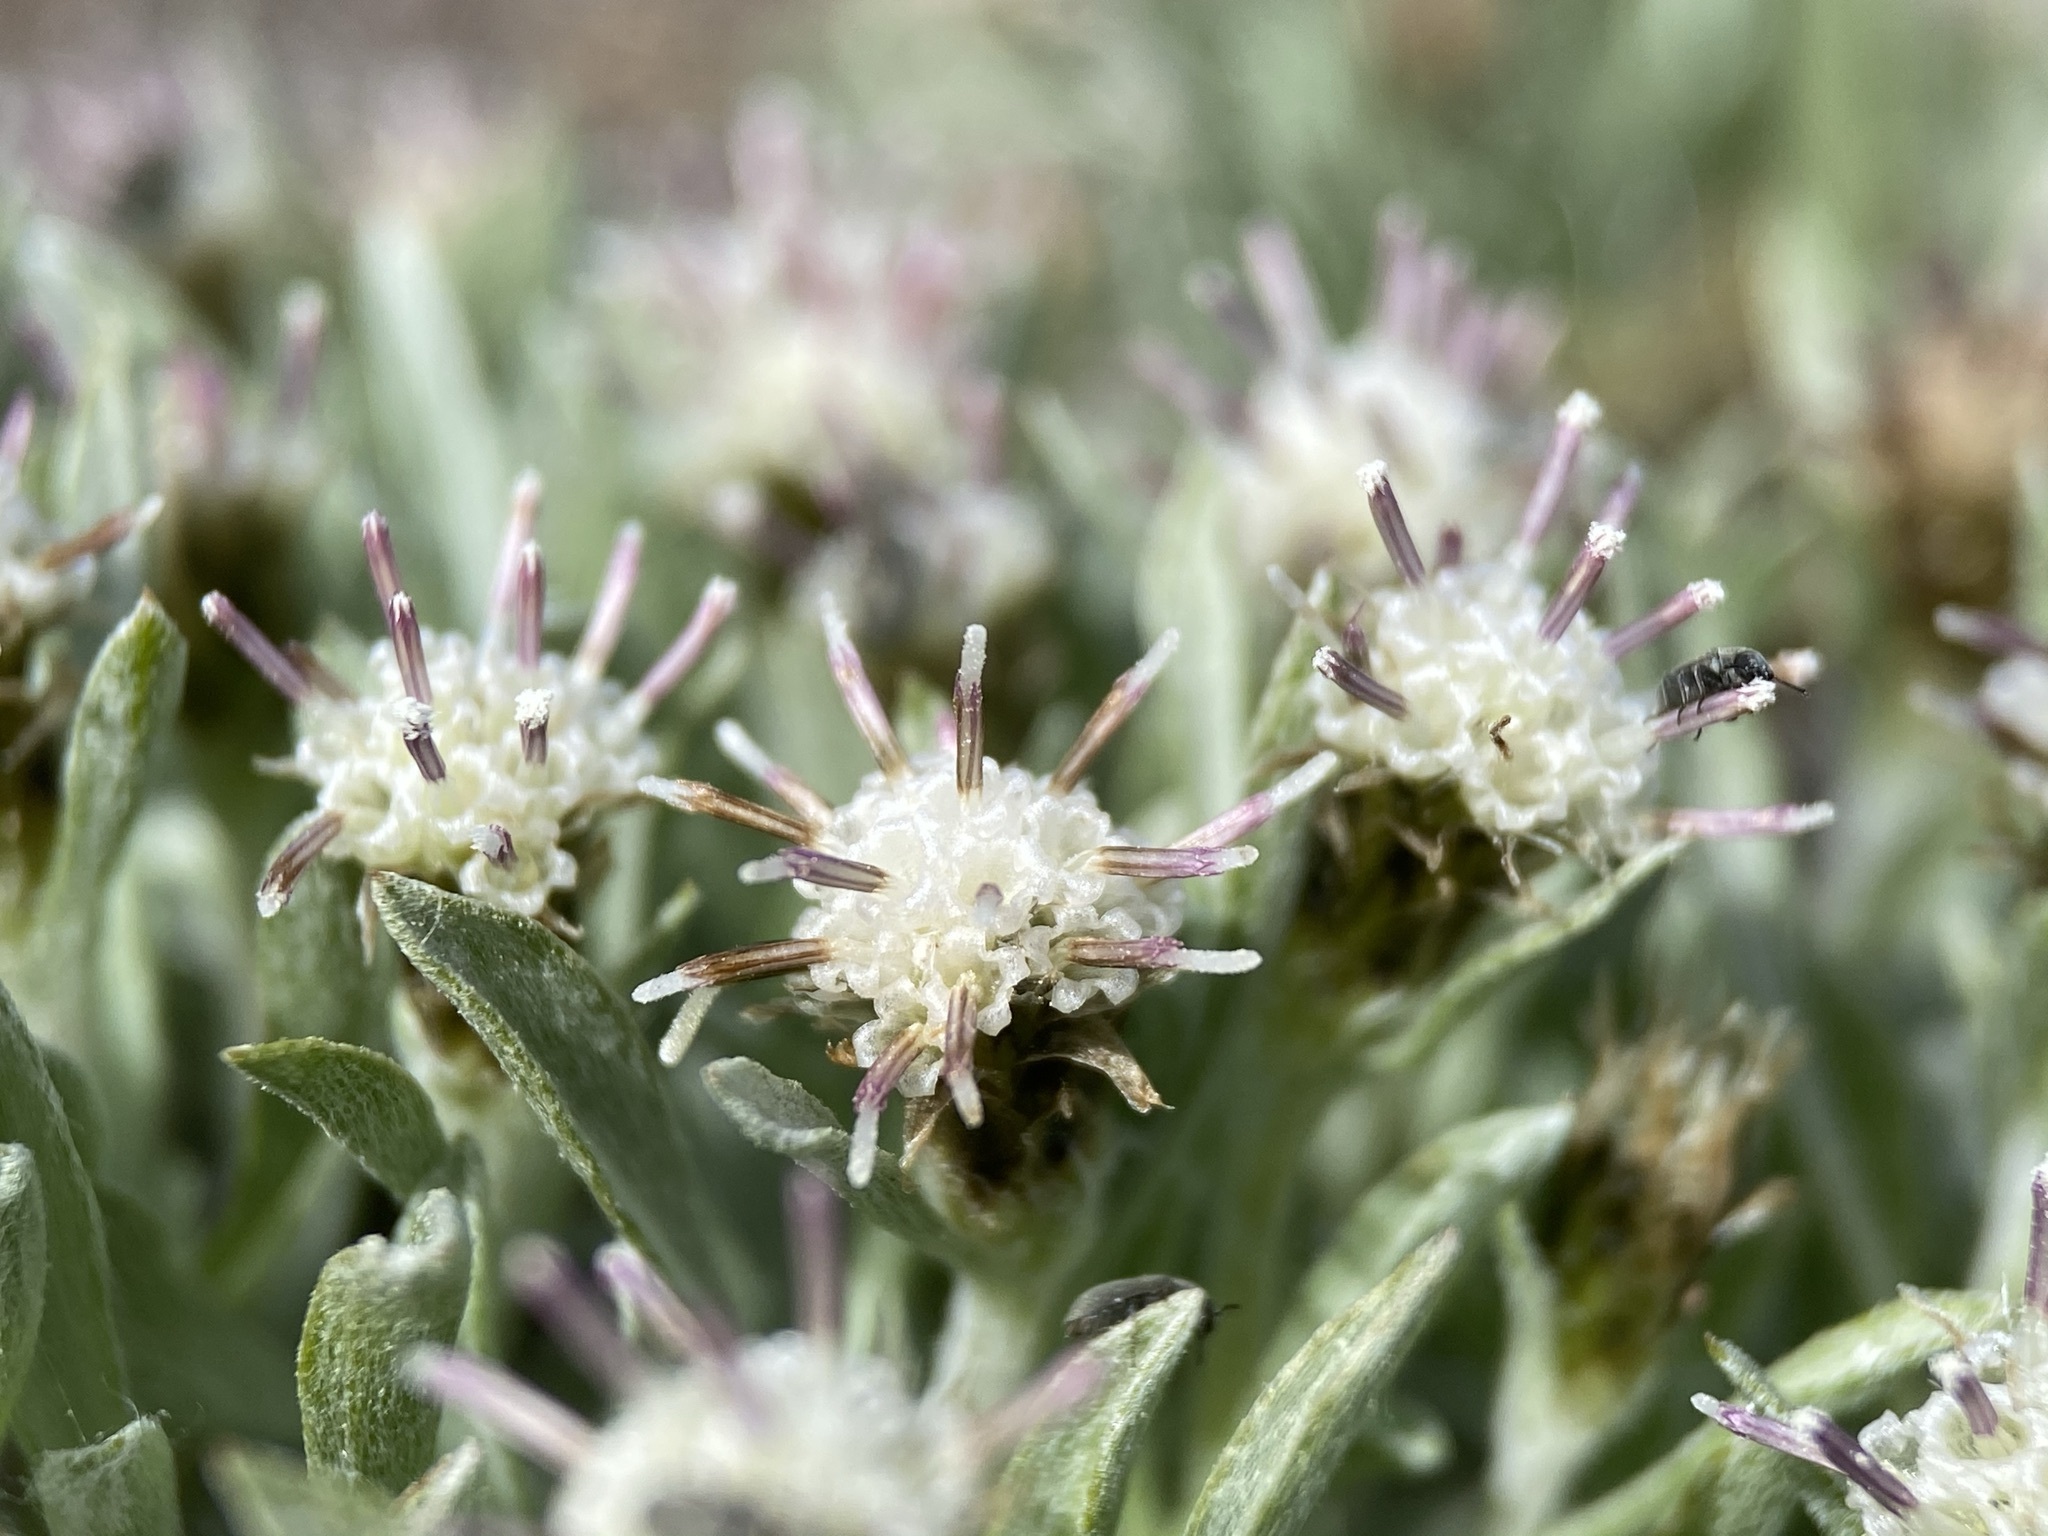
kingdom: Plantae
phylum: Tracheophyta
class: Magnoliopsida
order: Asterales
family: Asteraceae
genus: Antennaria
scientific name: Antennaria dimorpha
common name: Cushion pussytoes
